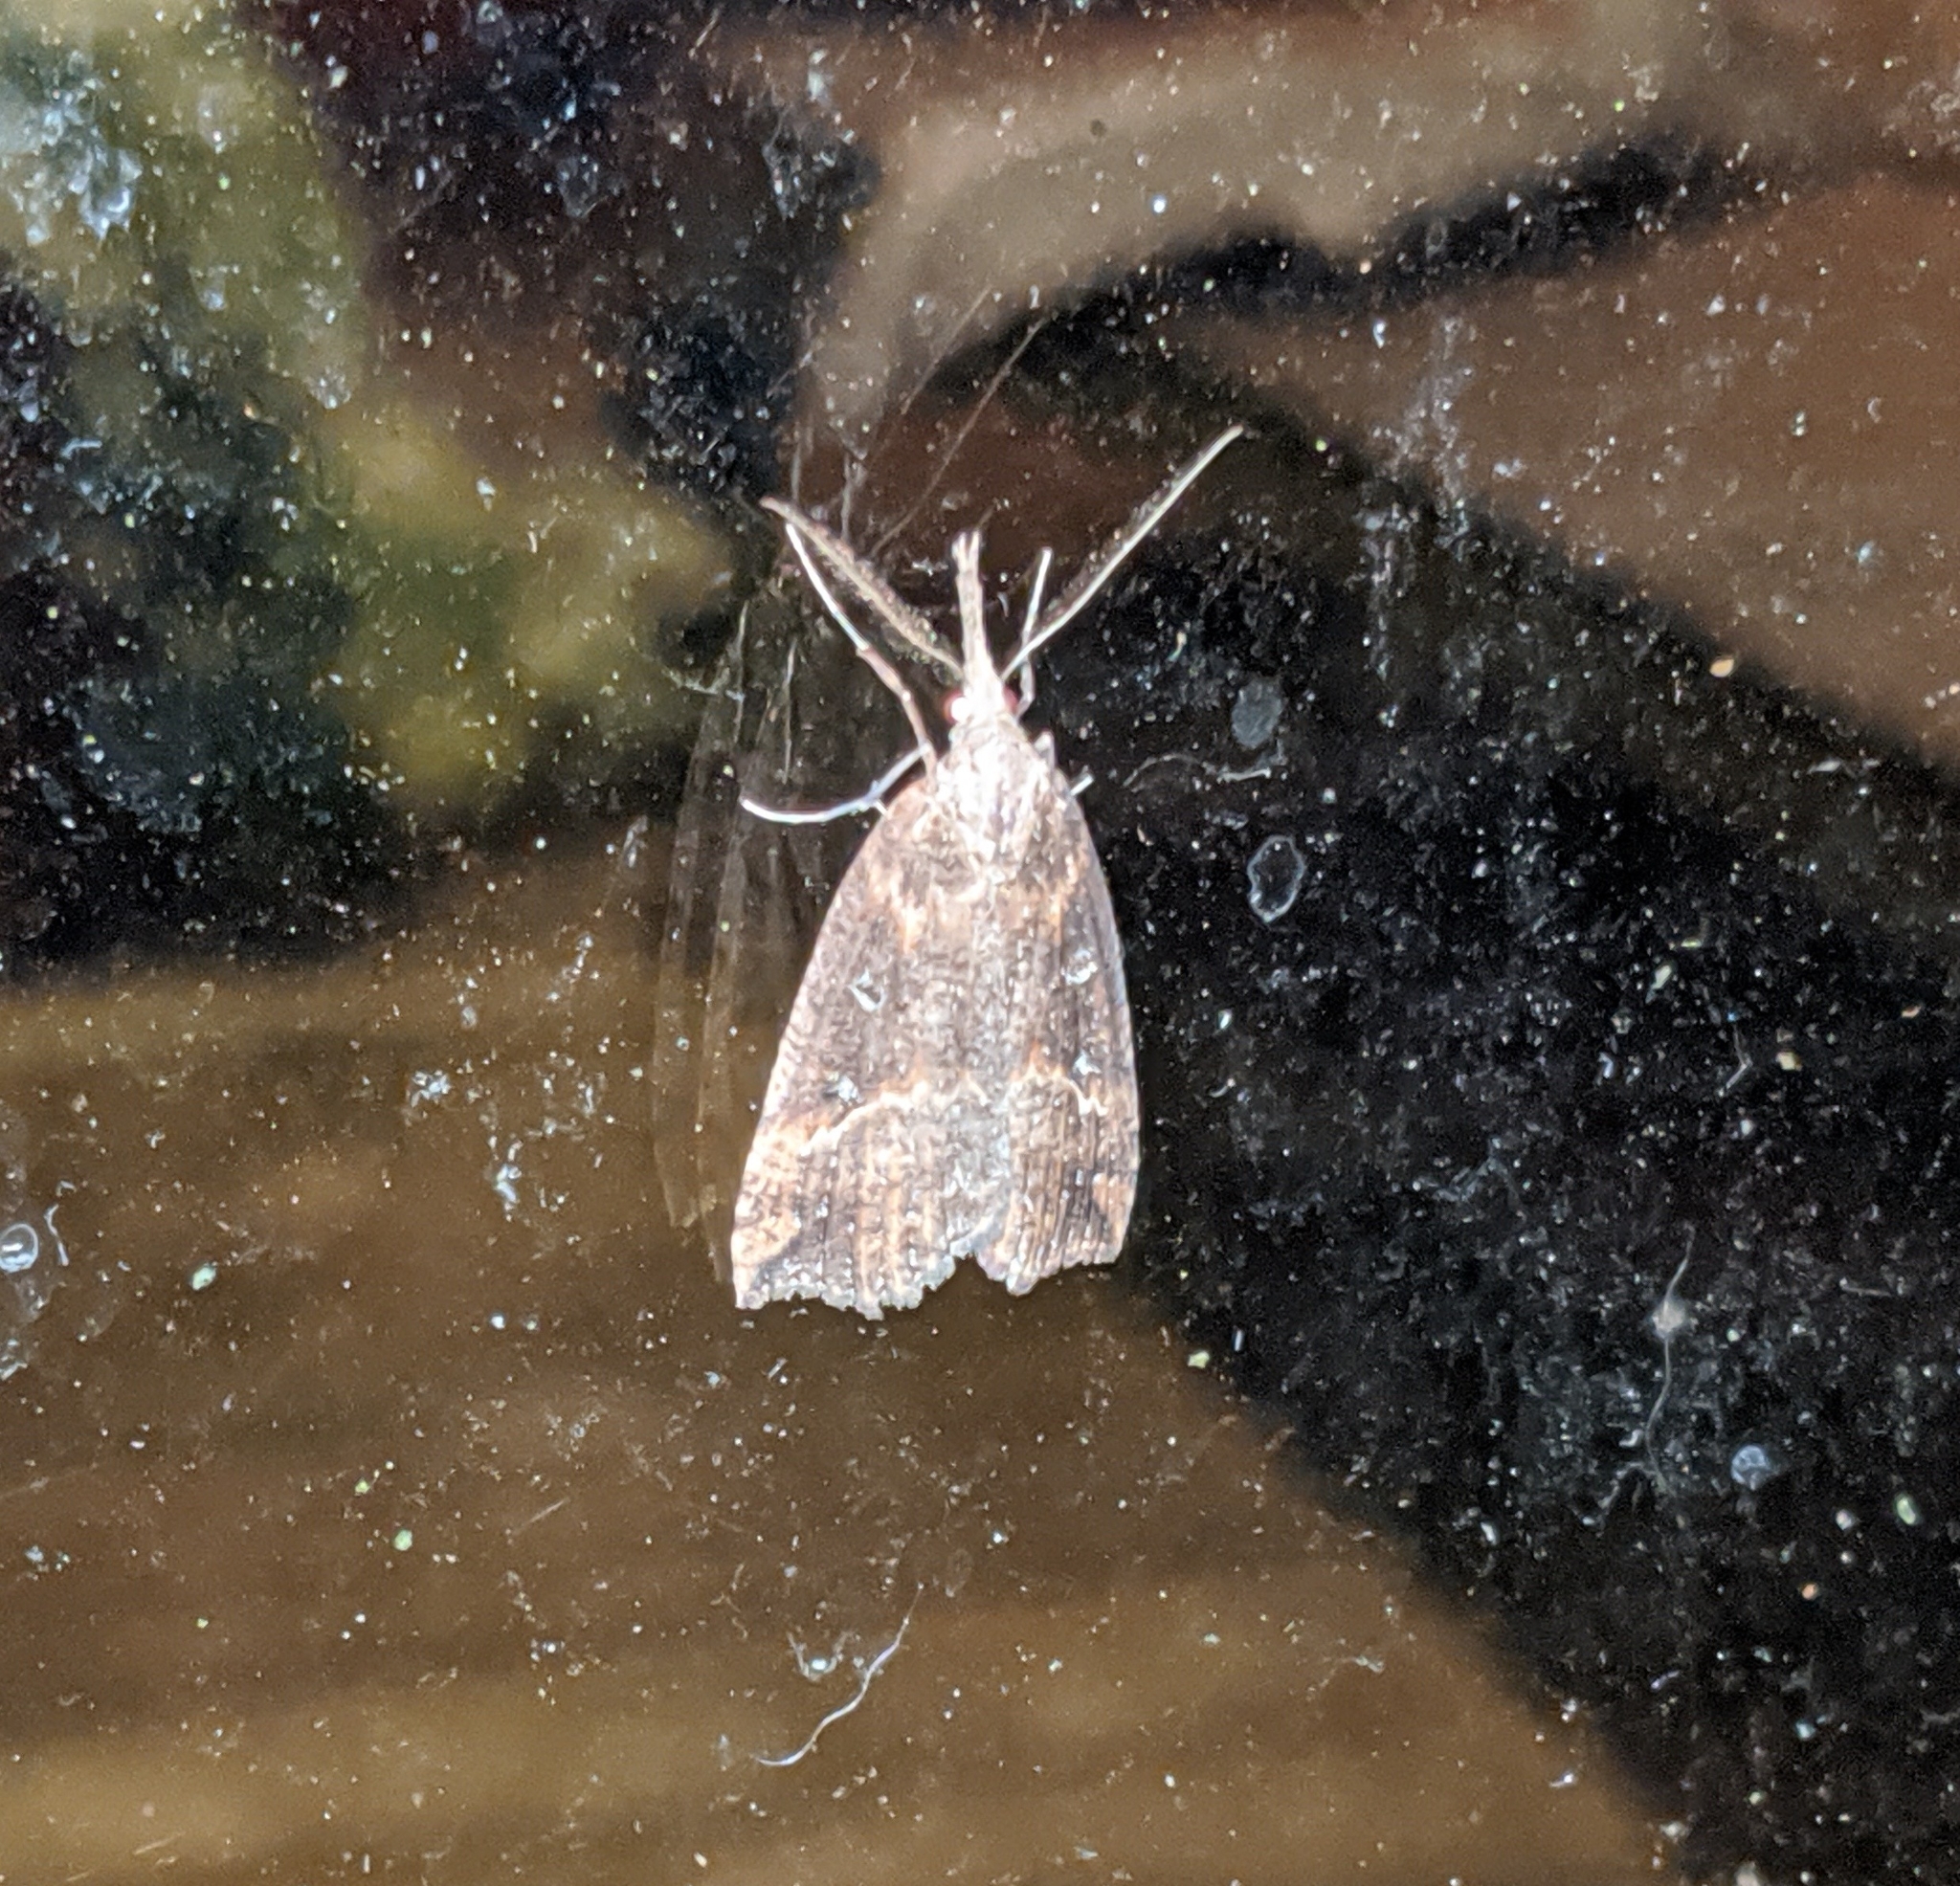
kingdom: Animalia
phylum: Arthropoda
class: Insecta
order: Lepidoptera
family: Erebidae
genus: Hypena
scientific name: Hypena californica
